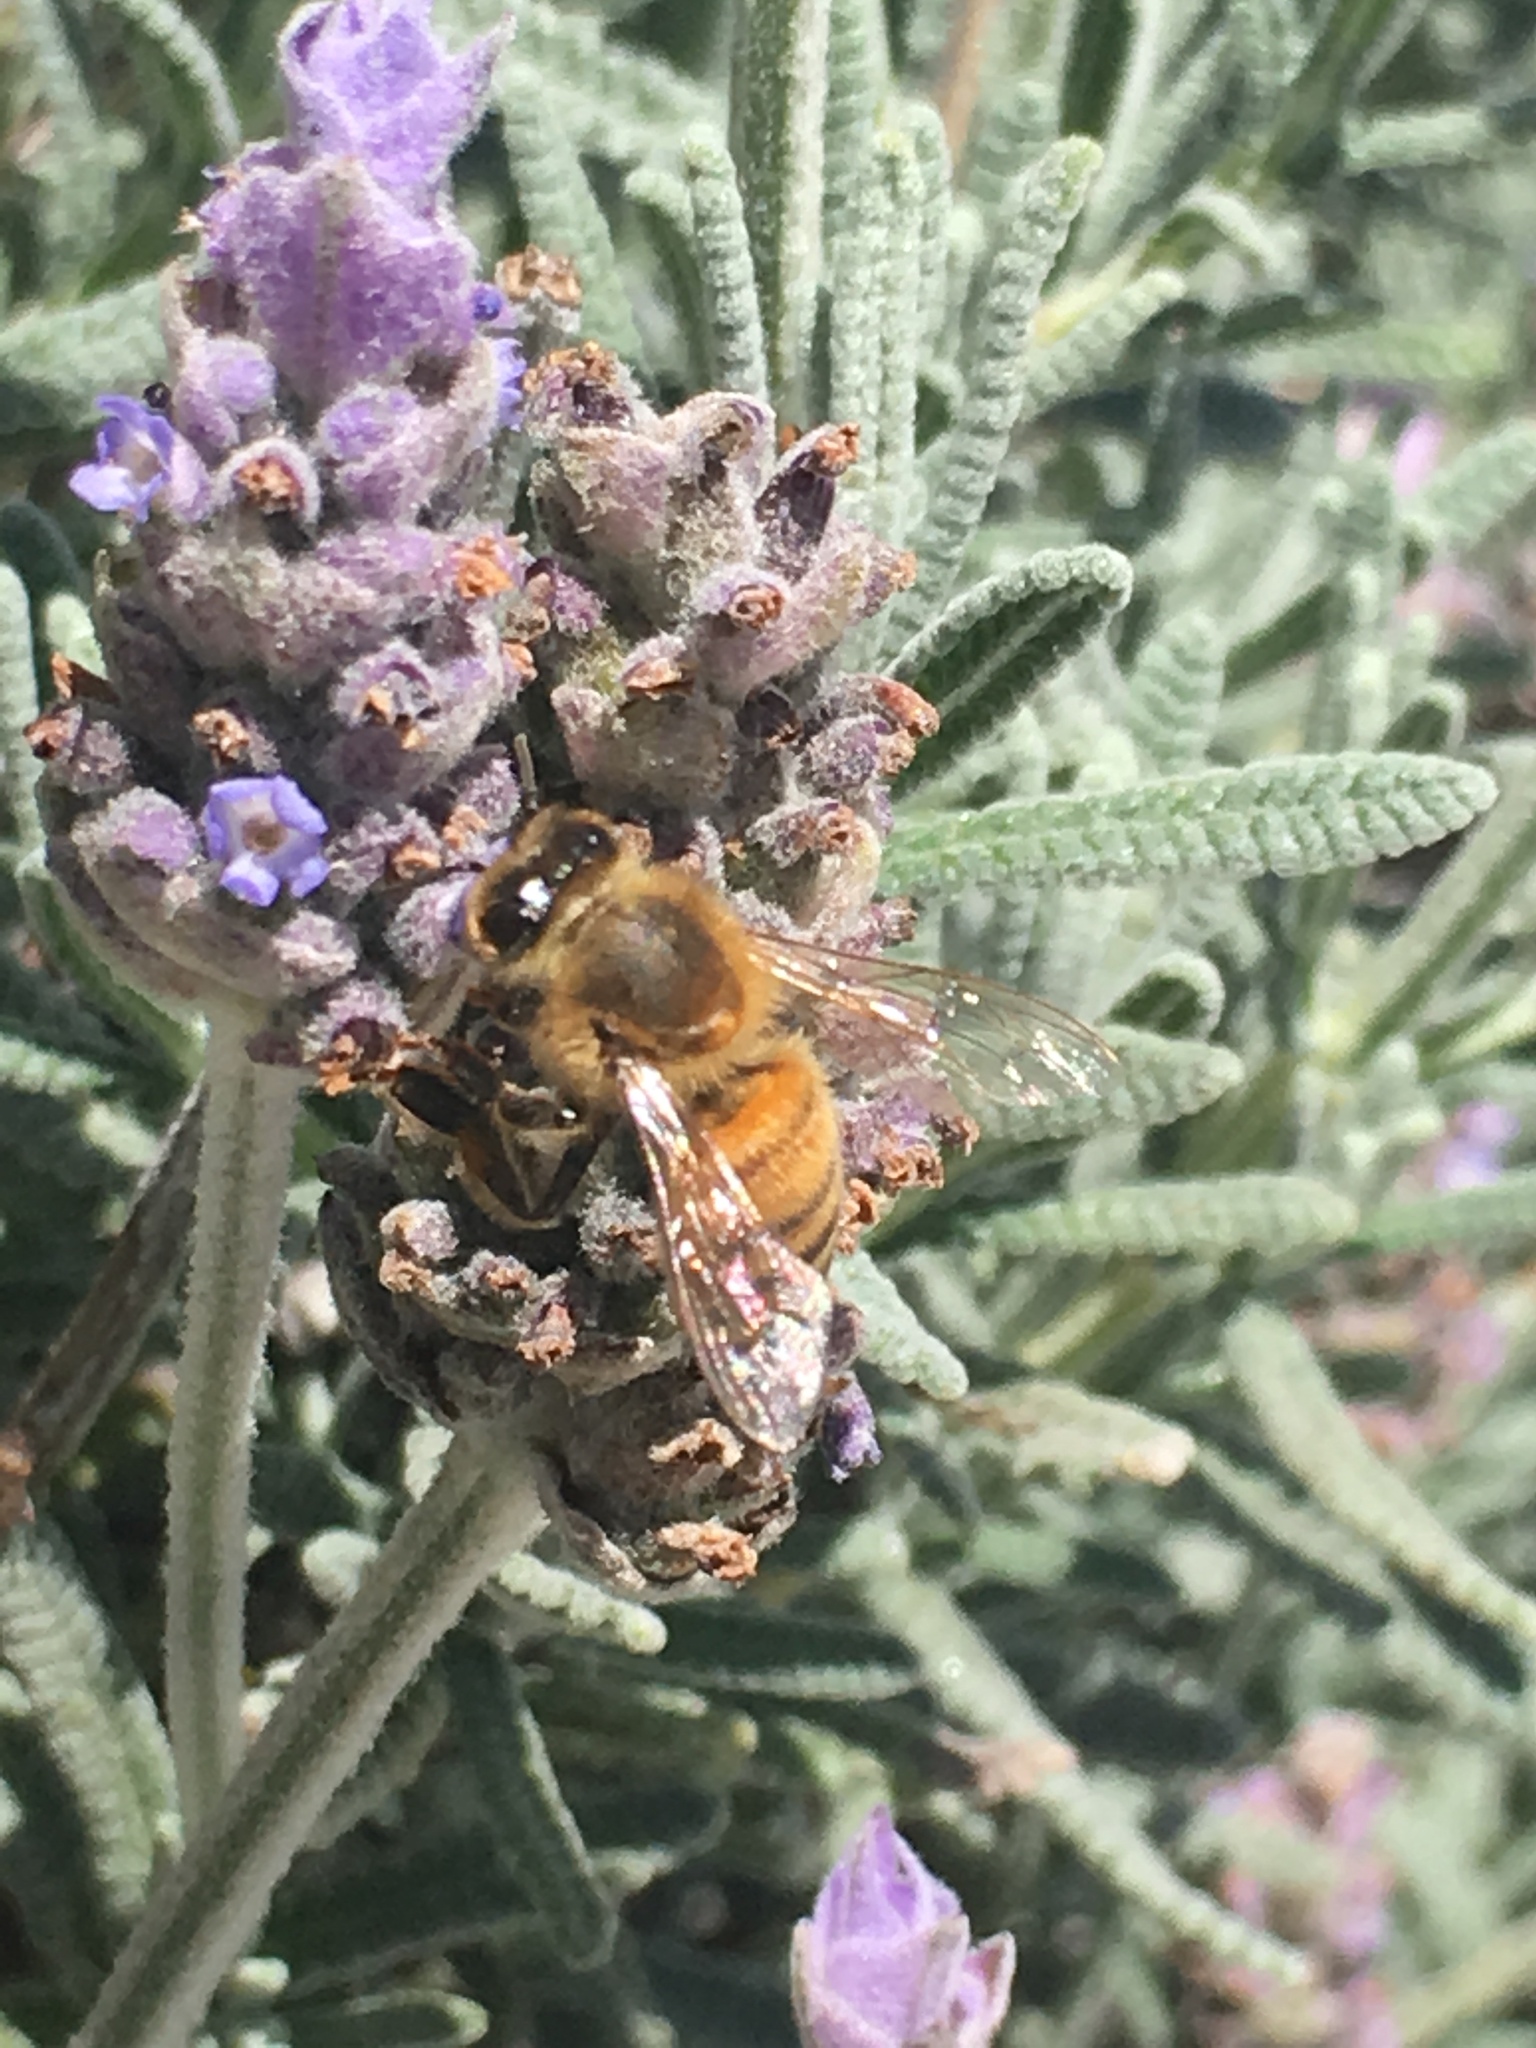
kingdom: Animalia
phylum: Arthropoda
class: Insecta
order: Hymenoptera
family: Apidae
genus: Apis
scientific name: Apis mellifera
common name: Honey bee
